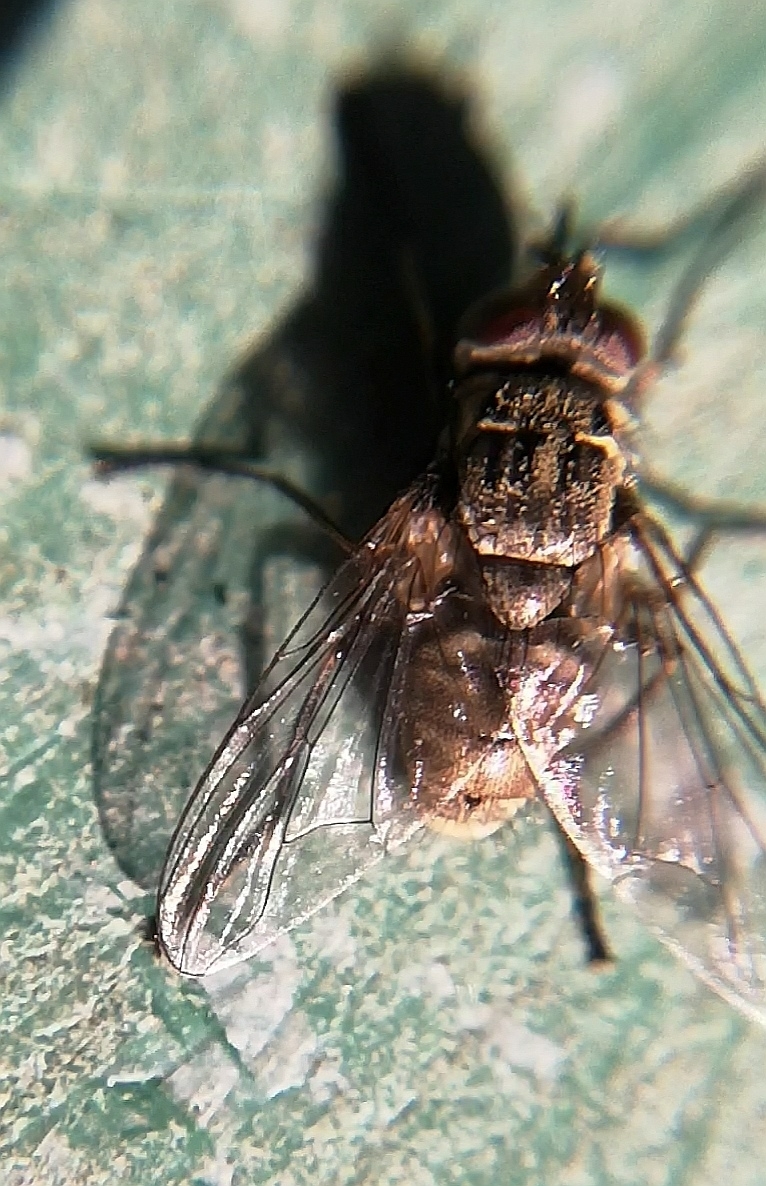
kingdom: Animalia
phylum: Arthropoda
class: Insecta
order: Diptera
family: Muscidae
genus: Stomoxys
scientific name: Stomoxys calcitrans
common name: Stable fly
